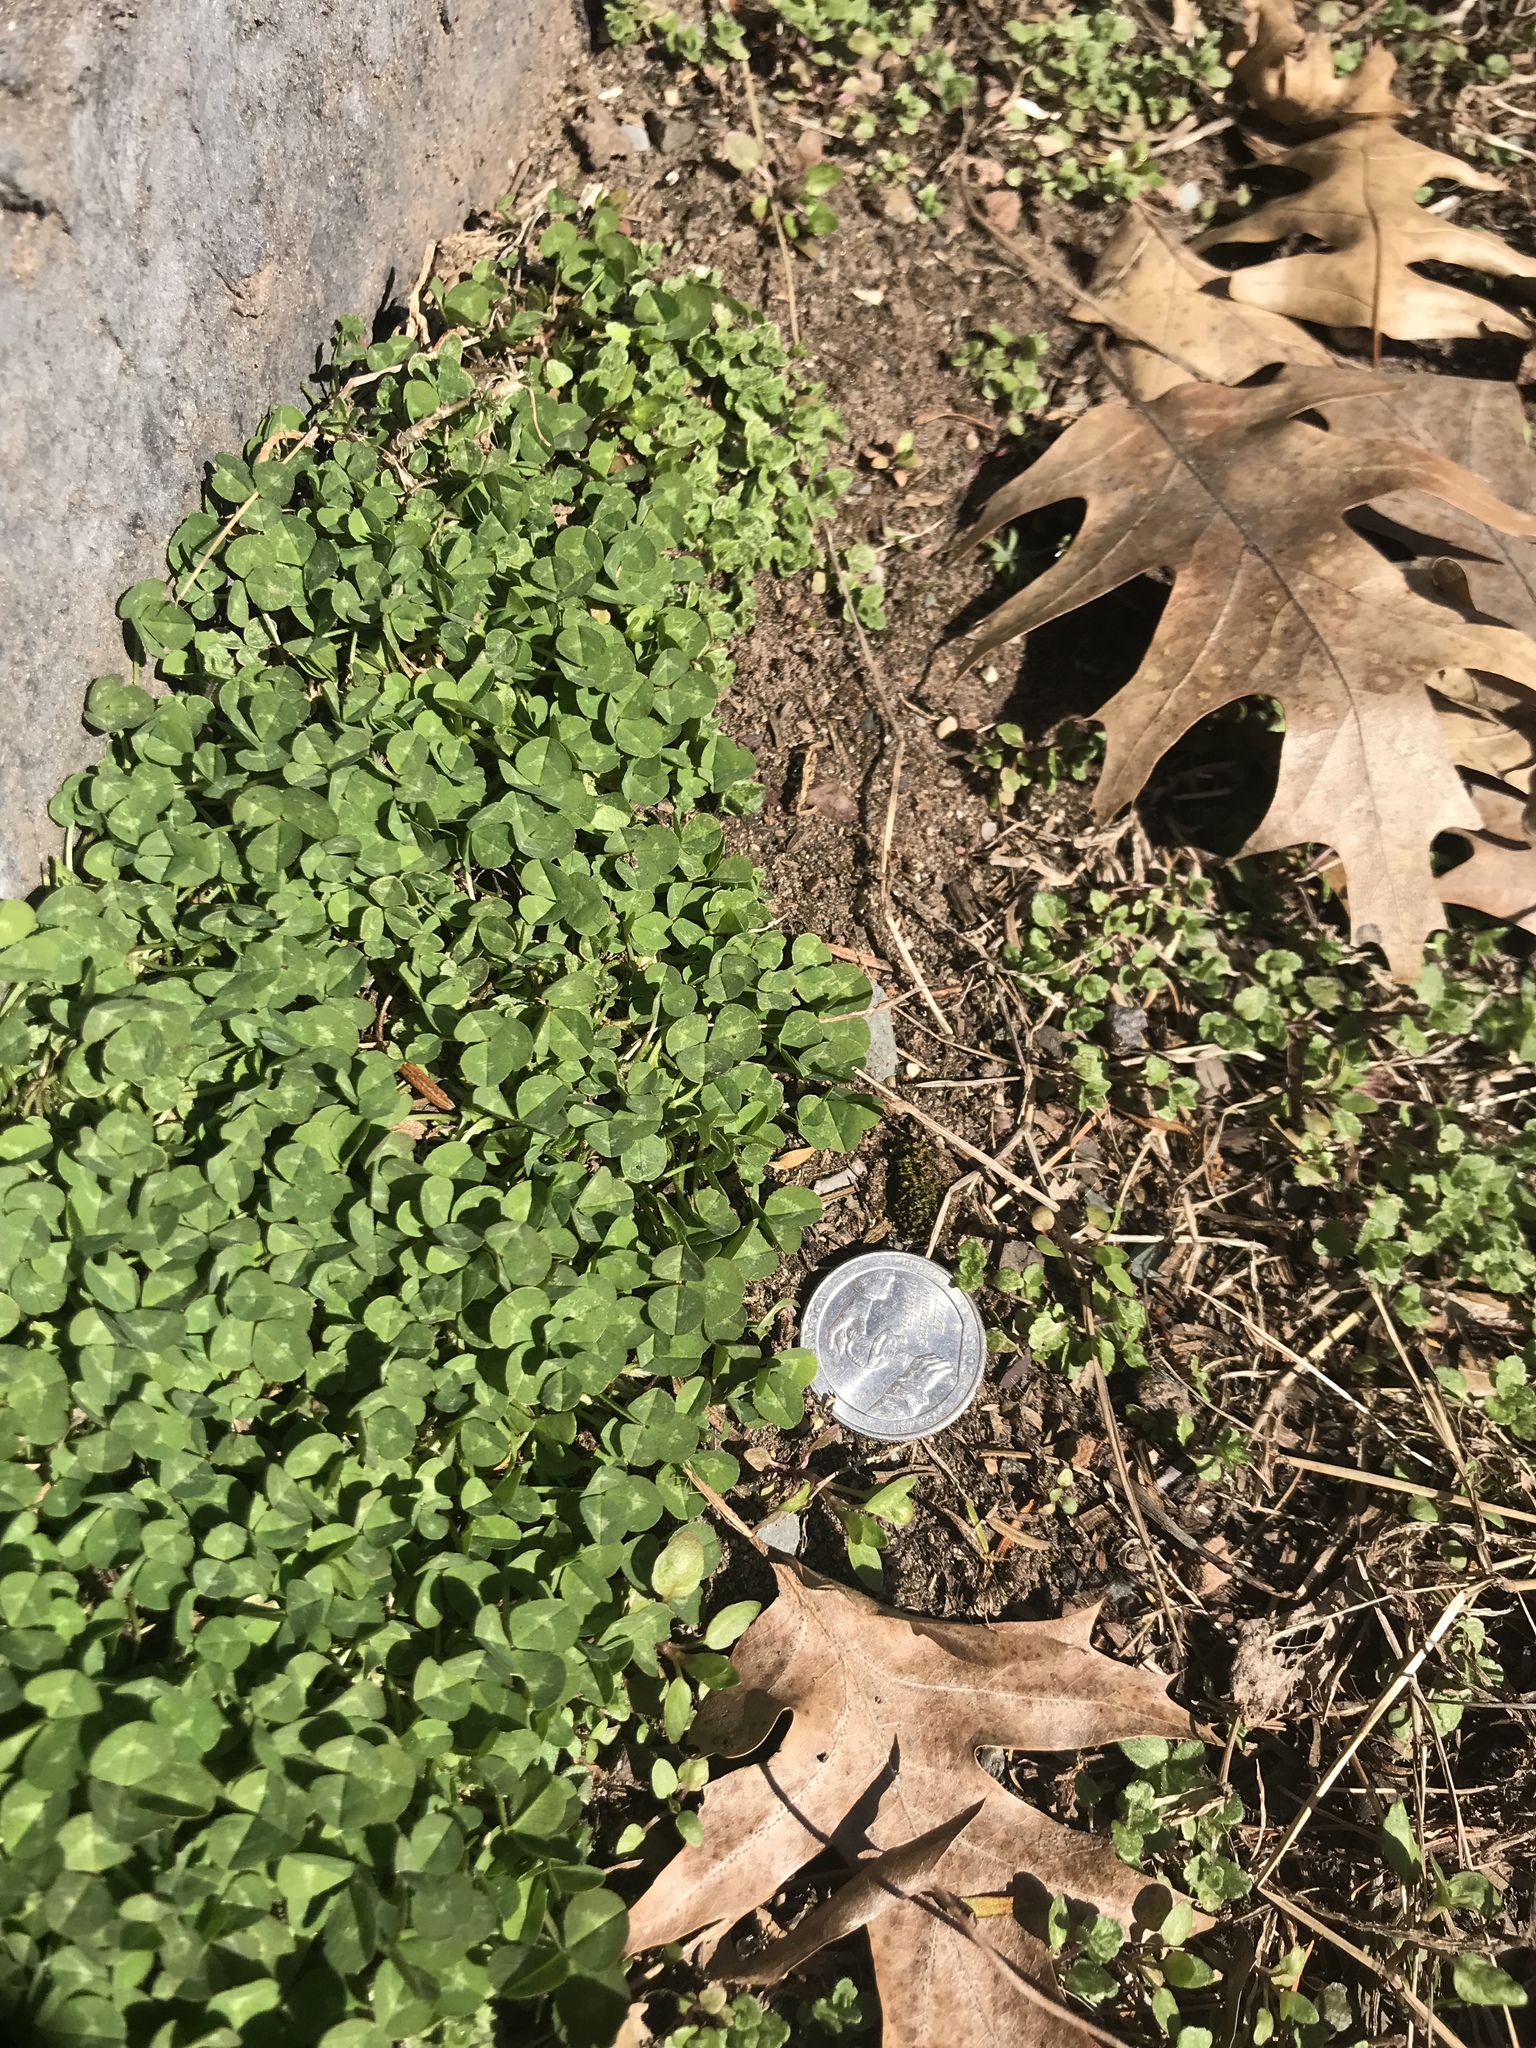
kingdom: Plantae
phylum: Tracheophyta
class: Magnoliopsida
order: Fabales
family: Fabaceae
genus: Trifolium
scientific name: Trifolium repens
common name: White clover
